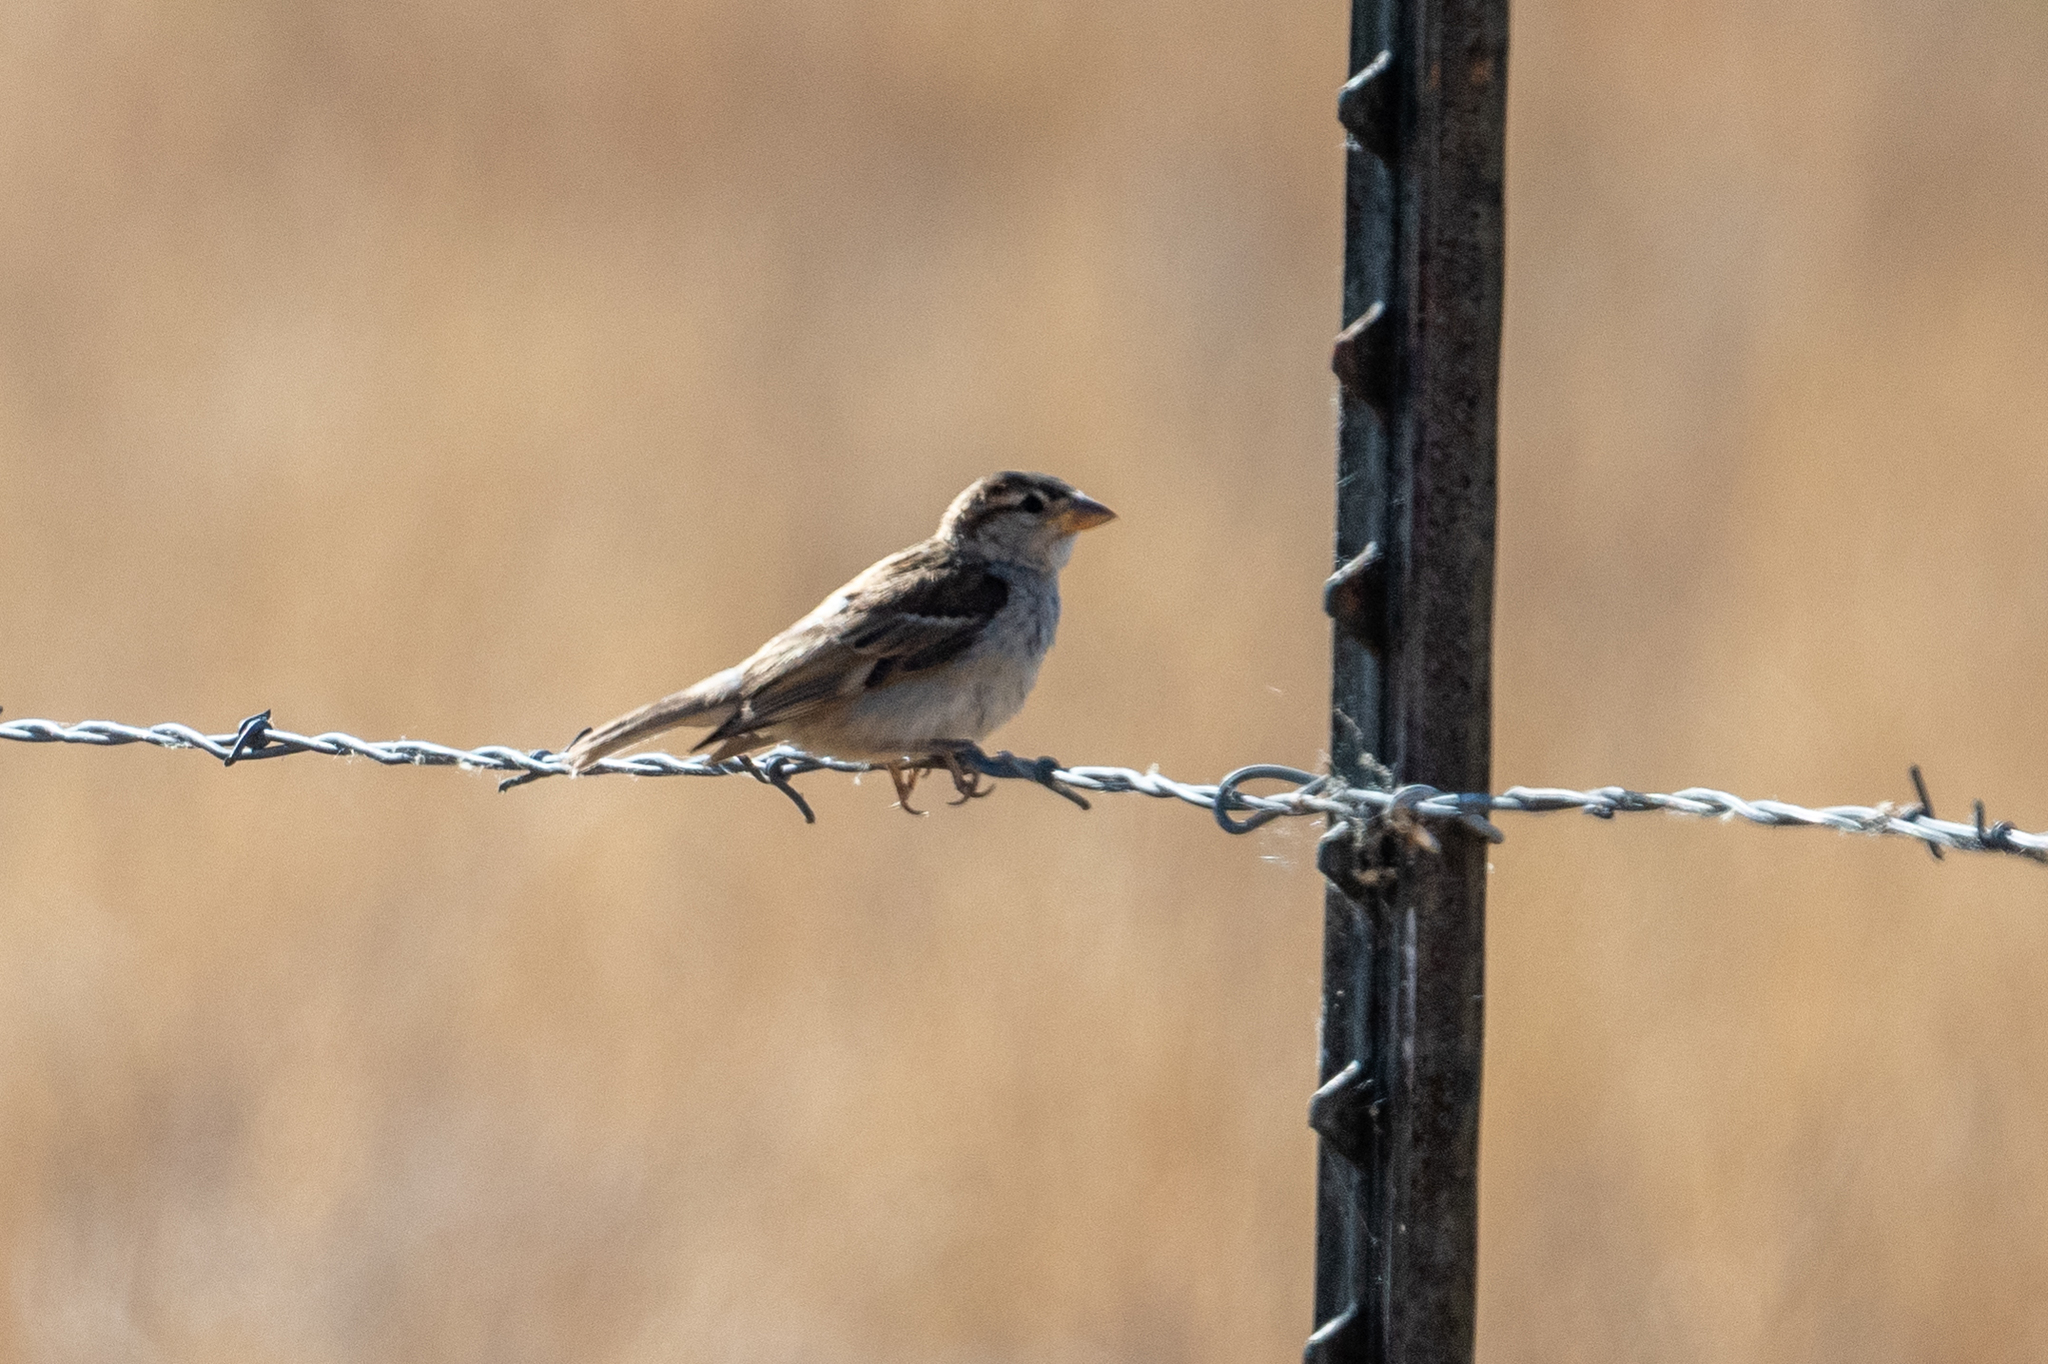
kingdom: Animalia
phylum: Chordata
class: Aves
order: Passeriformes
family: Passeridae
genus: Passer
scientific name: Passer domesticus
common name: House sparrow
